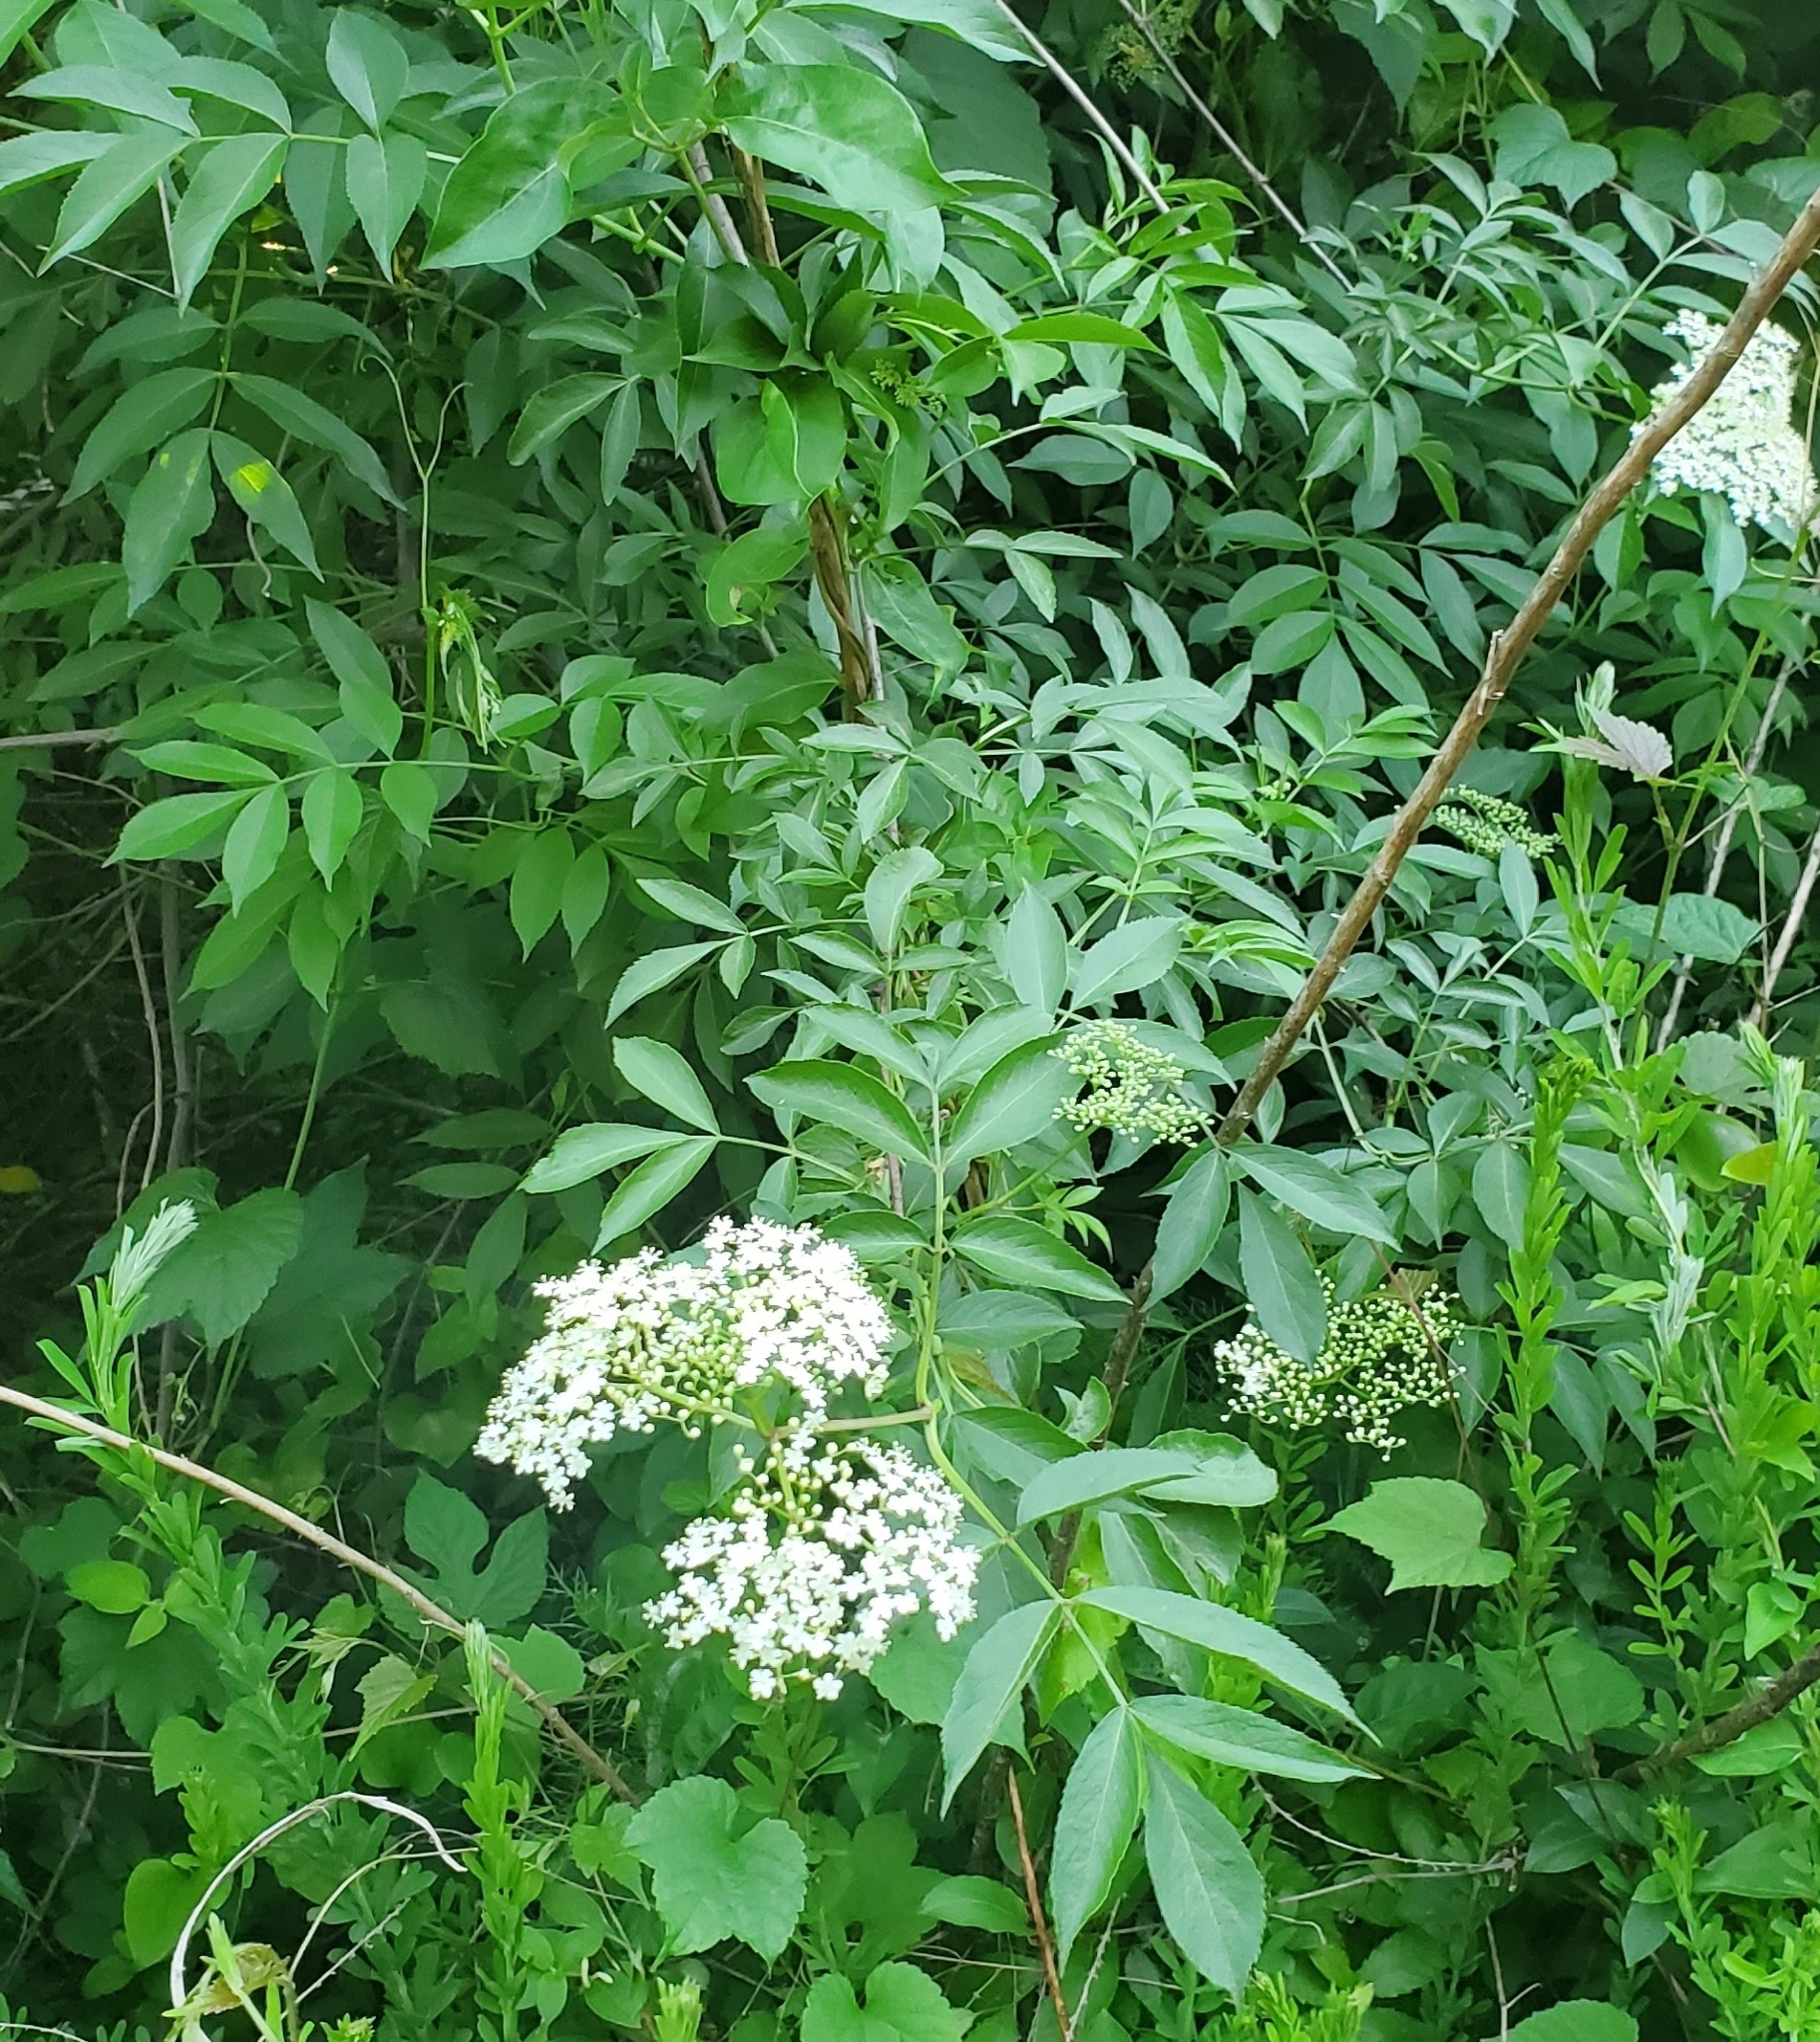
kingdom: Plantae
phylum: Tracheophyta
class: Magnoliopsida
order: Dipsacales
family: Viburnaceae
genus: Sambucus
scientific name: Sambucus canadensis
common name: American elder
